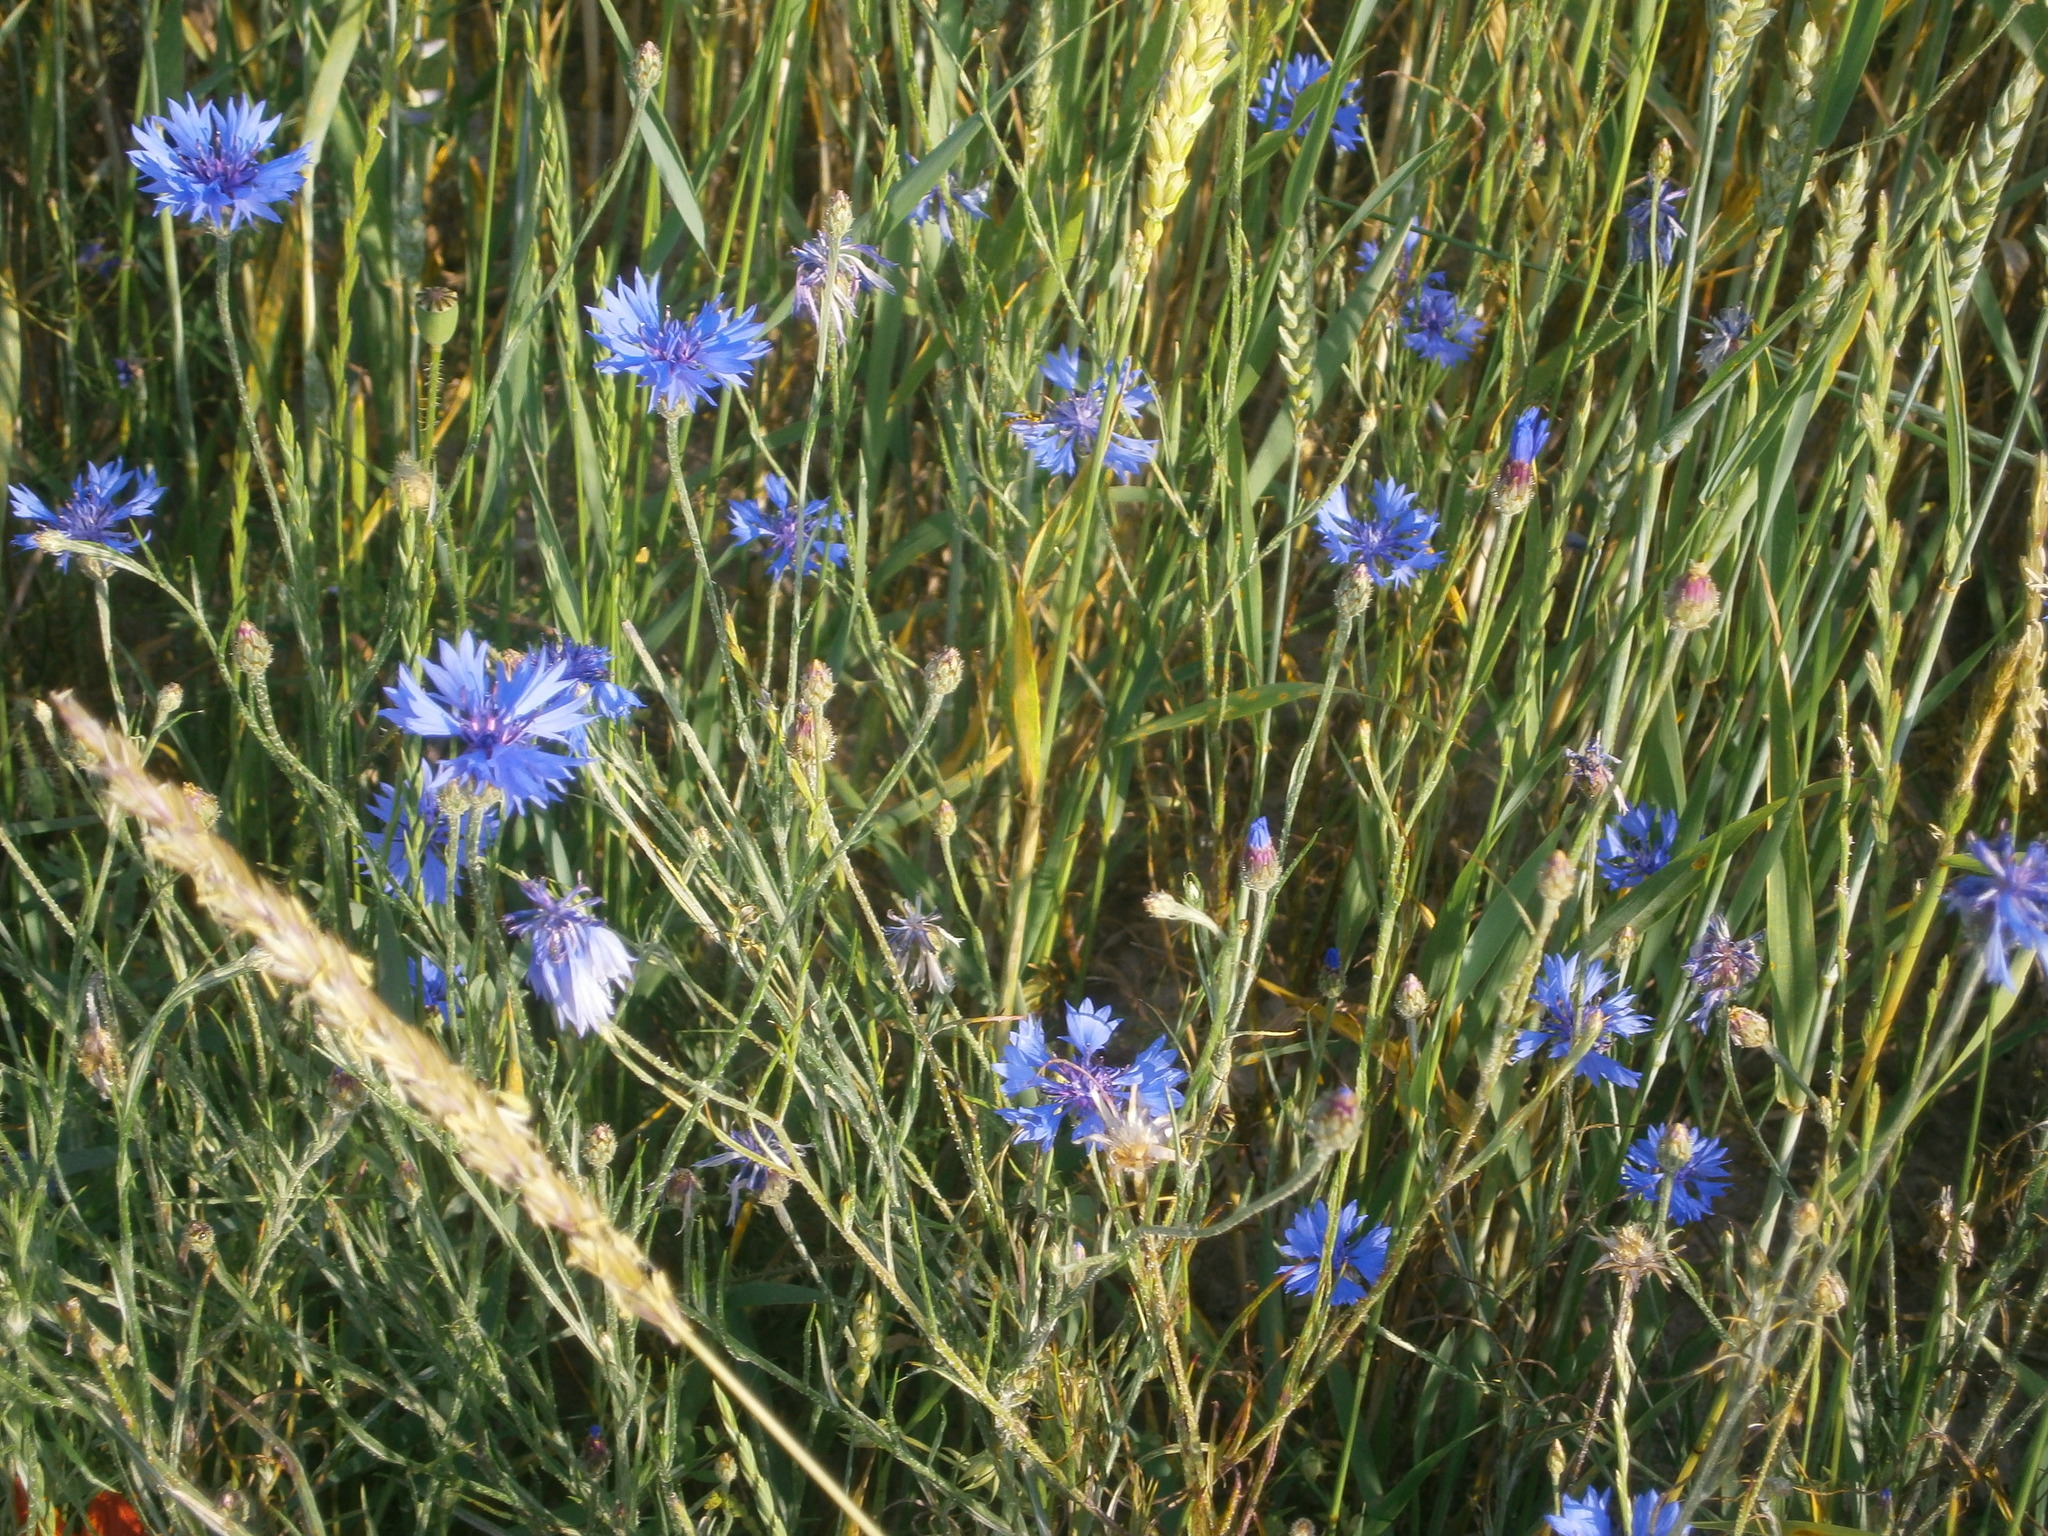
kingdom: Plantae
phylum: Tracheophyta
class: Magnoliopsida
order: Asterales
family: Asteraceae
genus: Centaurea
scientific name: Centaurea cyanus
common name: Cornflower
